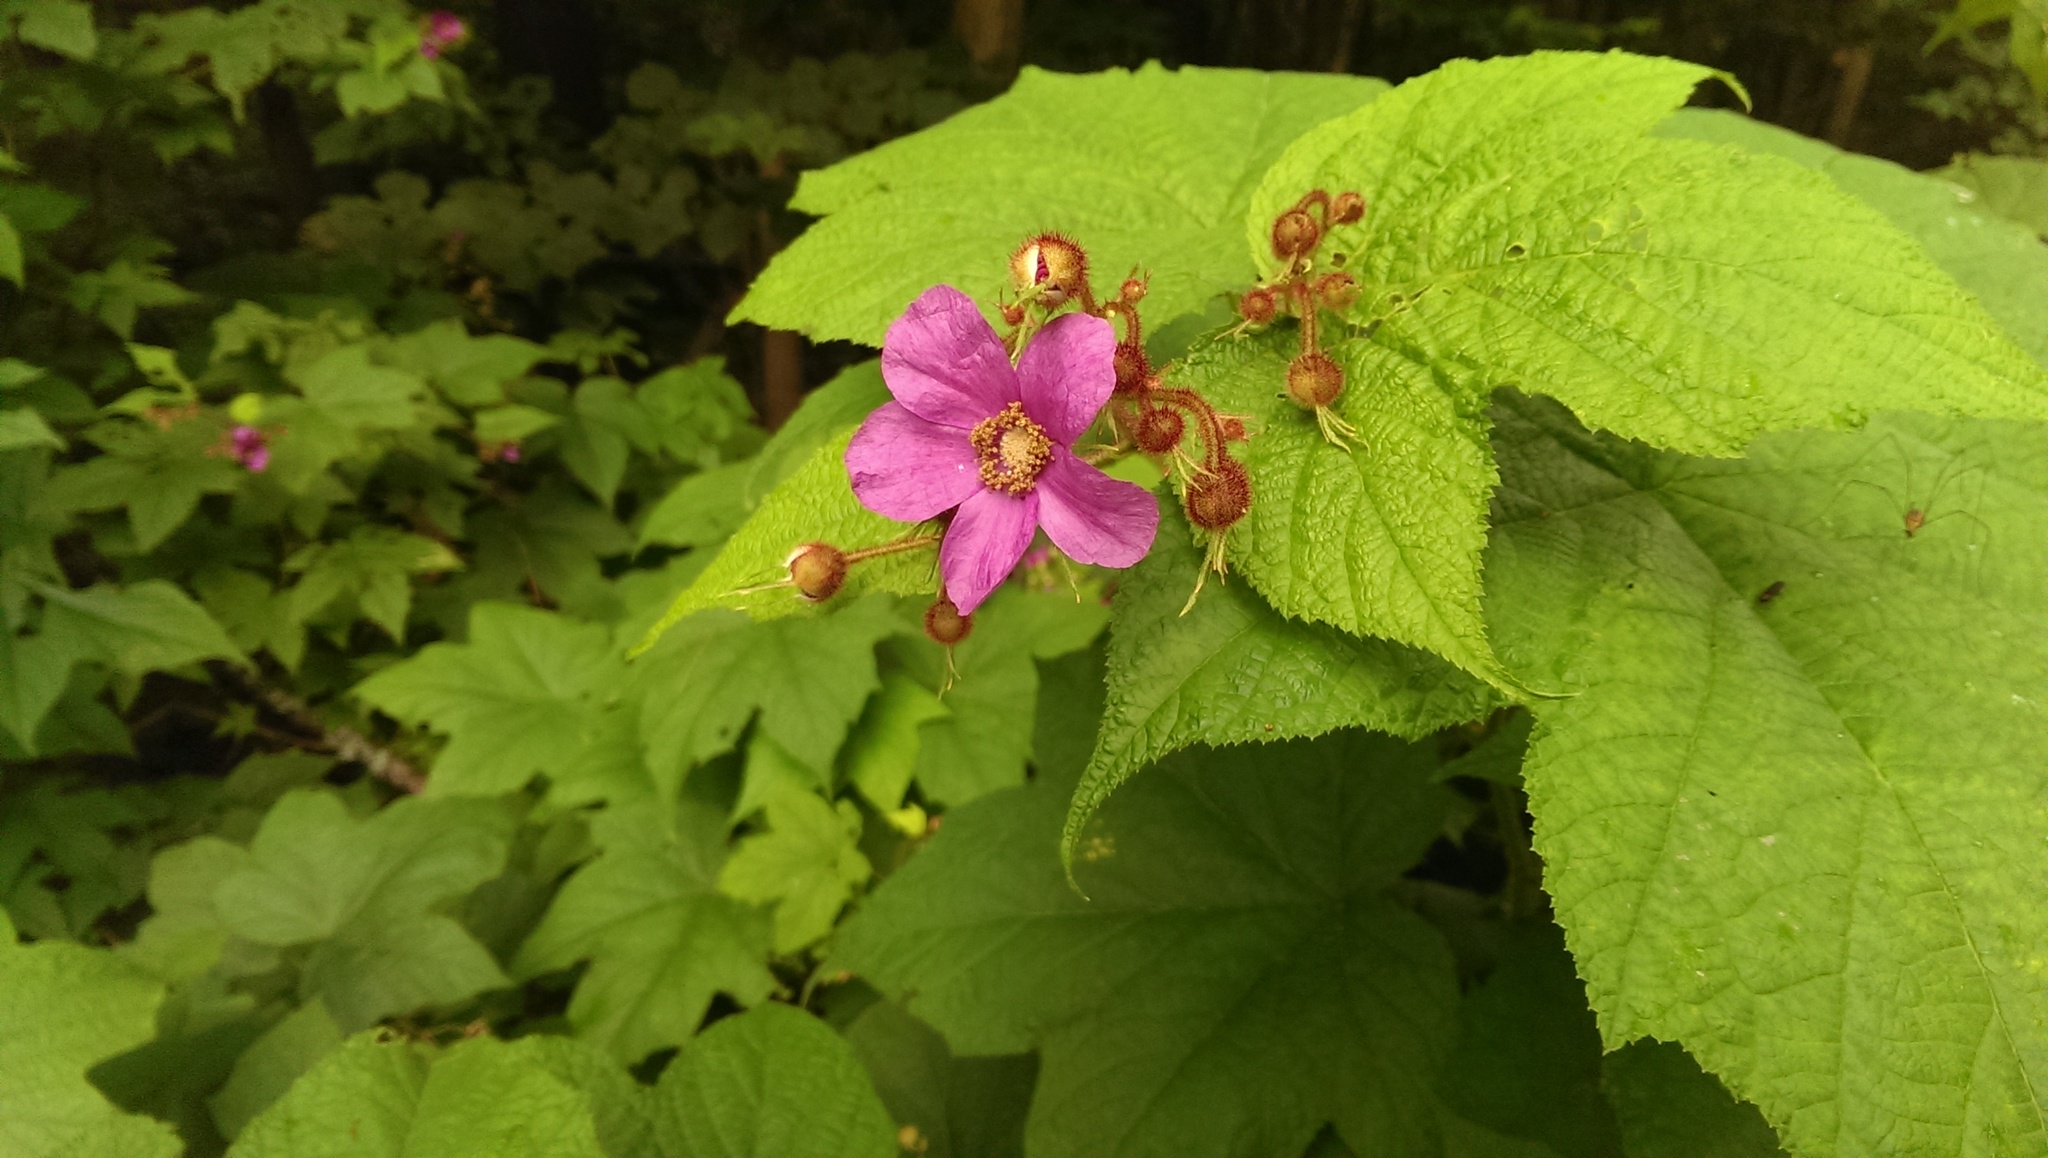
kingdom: Plantae
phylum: Tracheophyta
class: Magnoliopsida
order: Rosales
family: Rosaceae
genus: Rubus
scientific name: Rubus odoratus
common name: Purple-flowered raspberry
